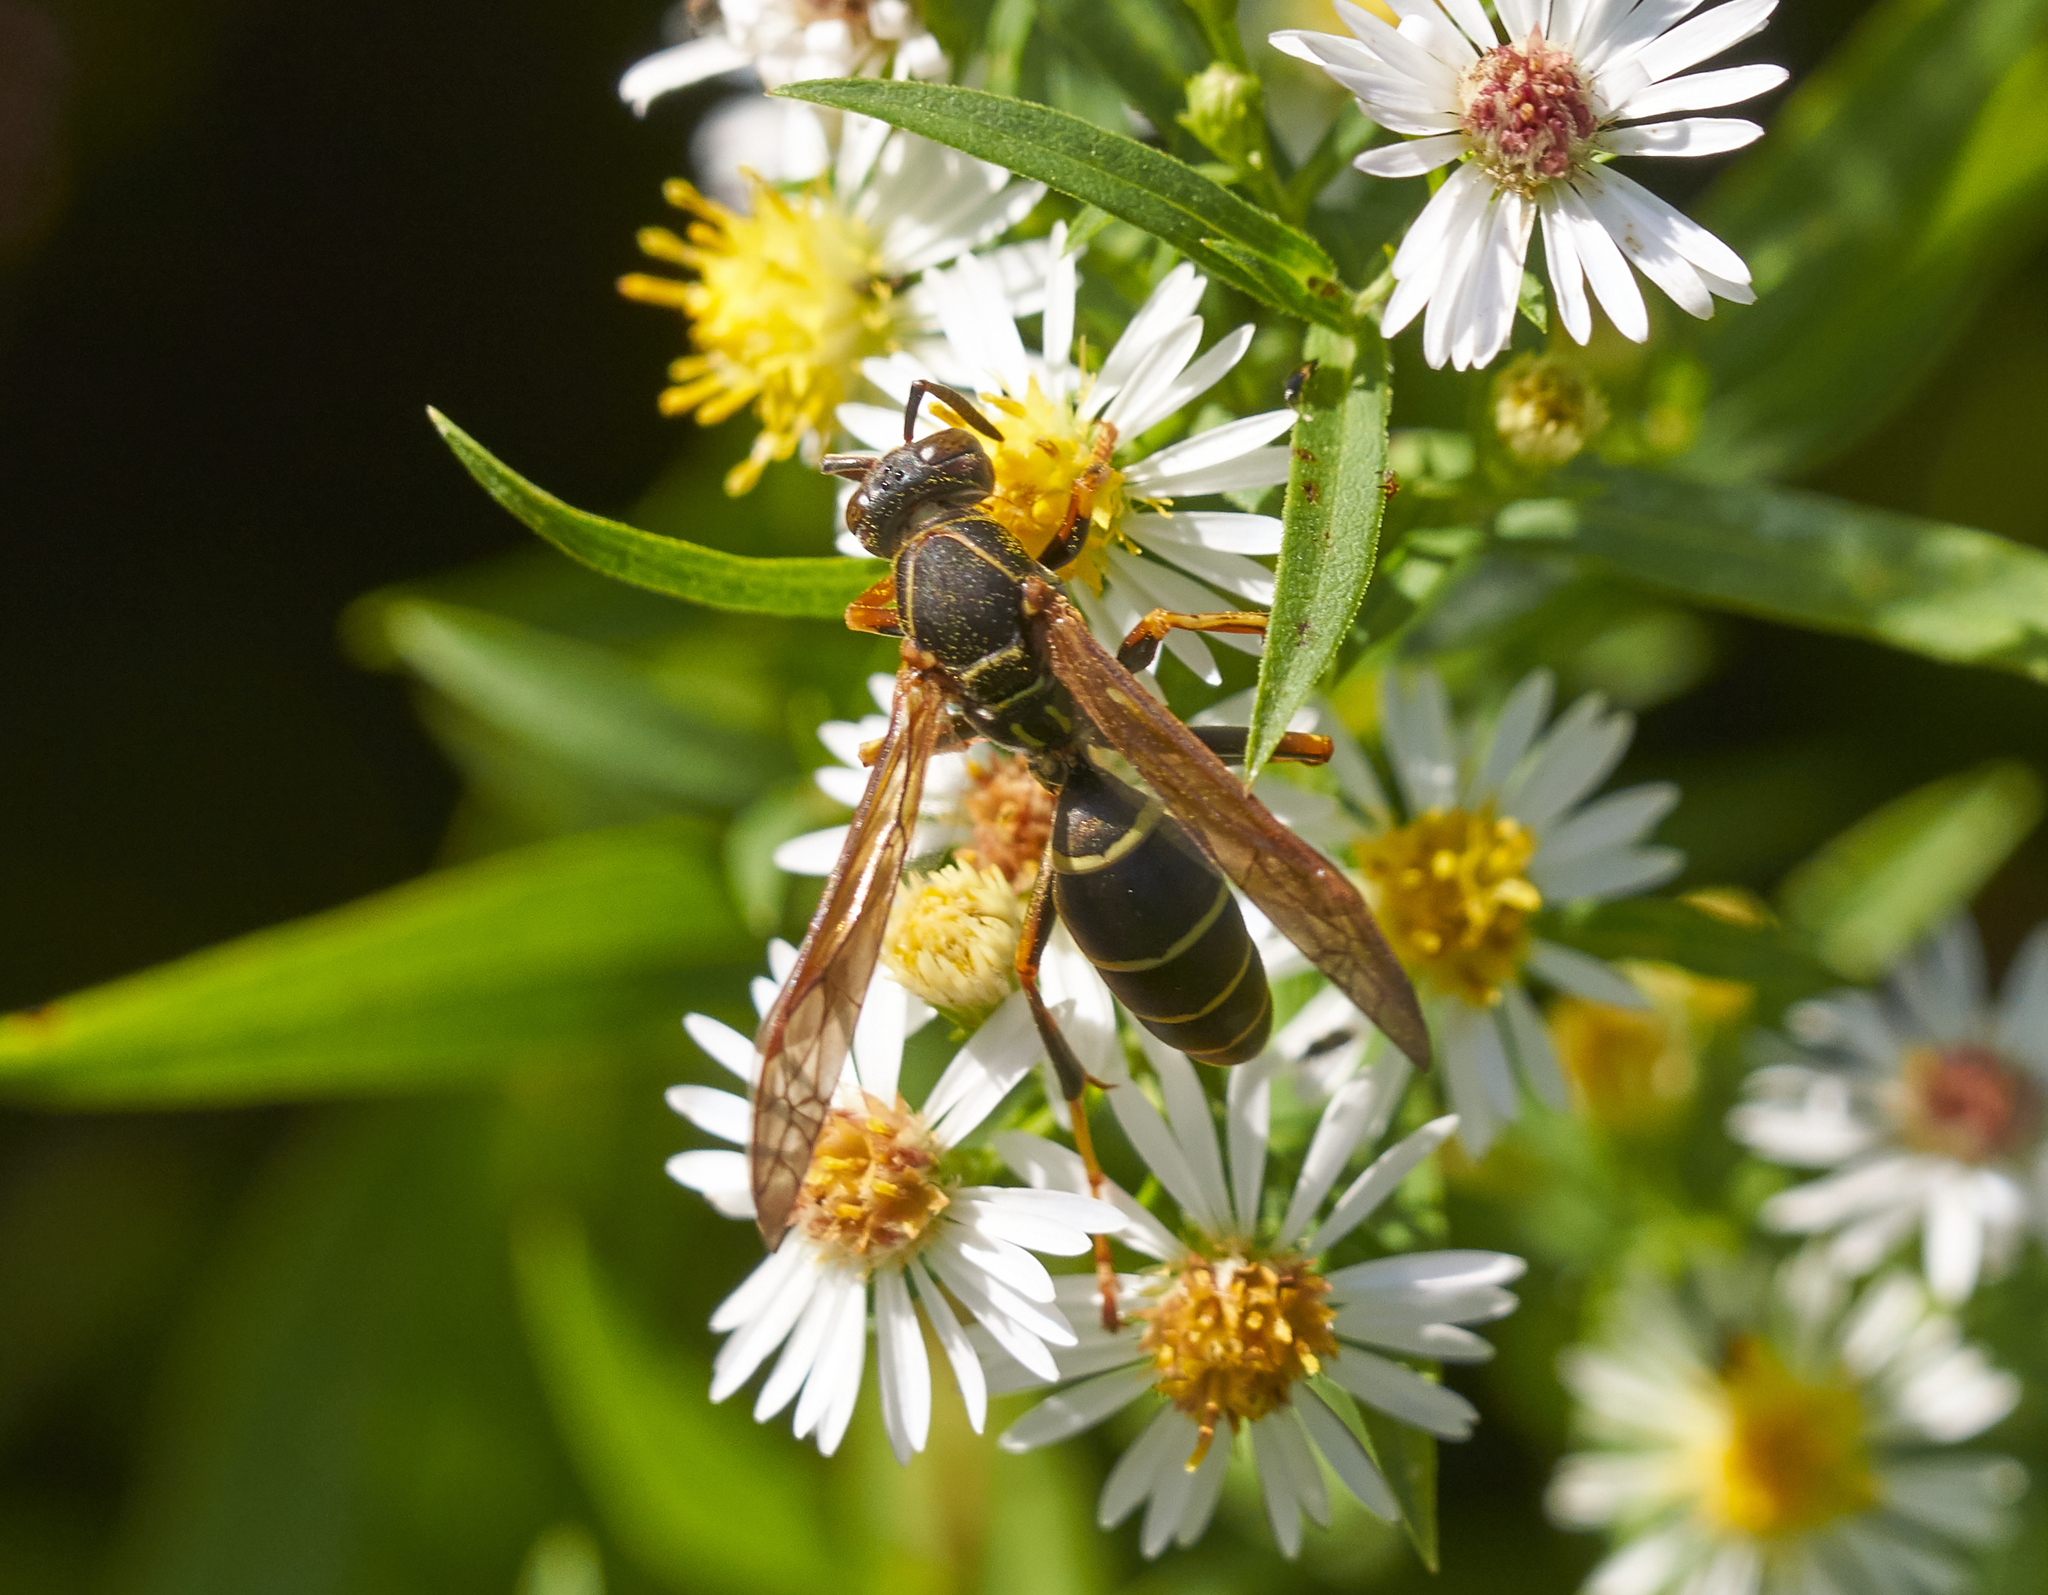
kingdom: Animalia
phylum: Arthropoda
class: Insecta
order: Hymenoptera
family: Eumenidae
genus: Polistes
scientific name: Polistes fuscatus
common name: Dark paper wasp
